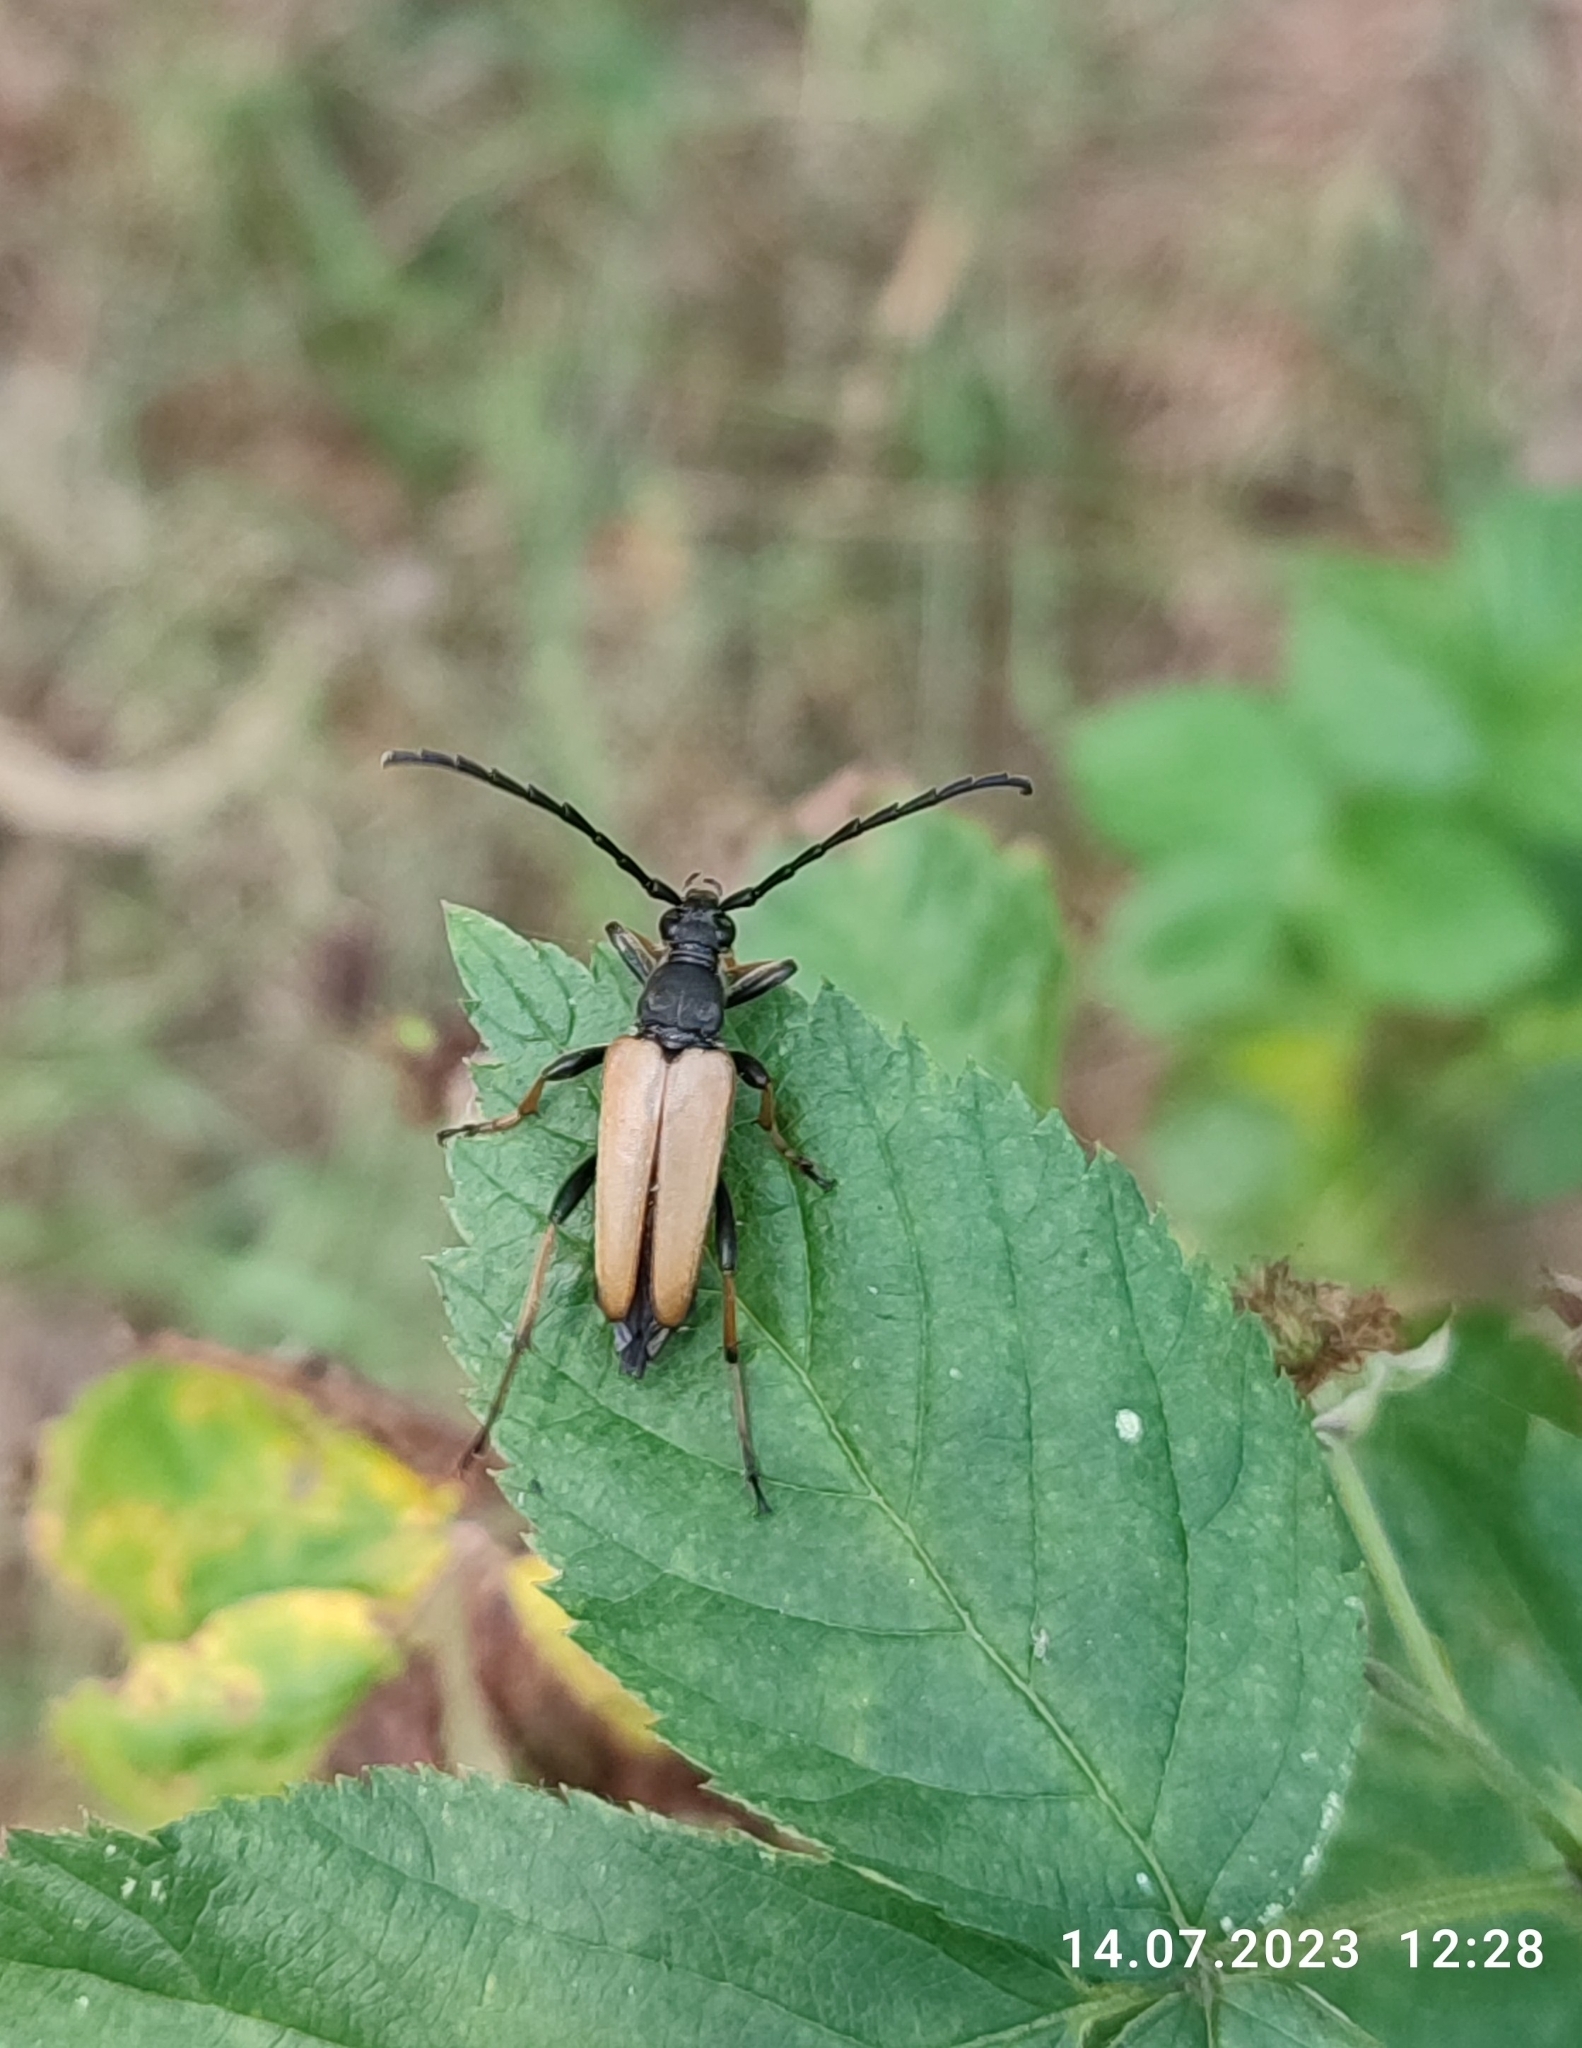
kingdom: Animalia
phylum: Arthropoda
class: Insecta
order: Coleoptera
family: Cerambycidae
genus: Stictoleptura
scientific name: Stictoleptura rubra
